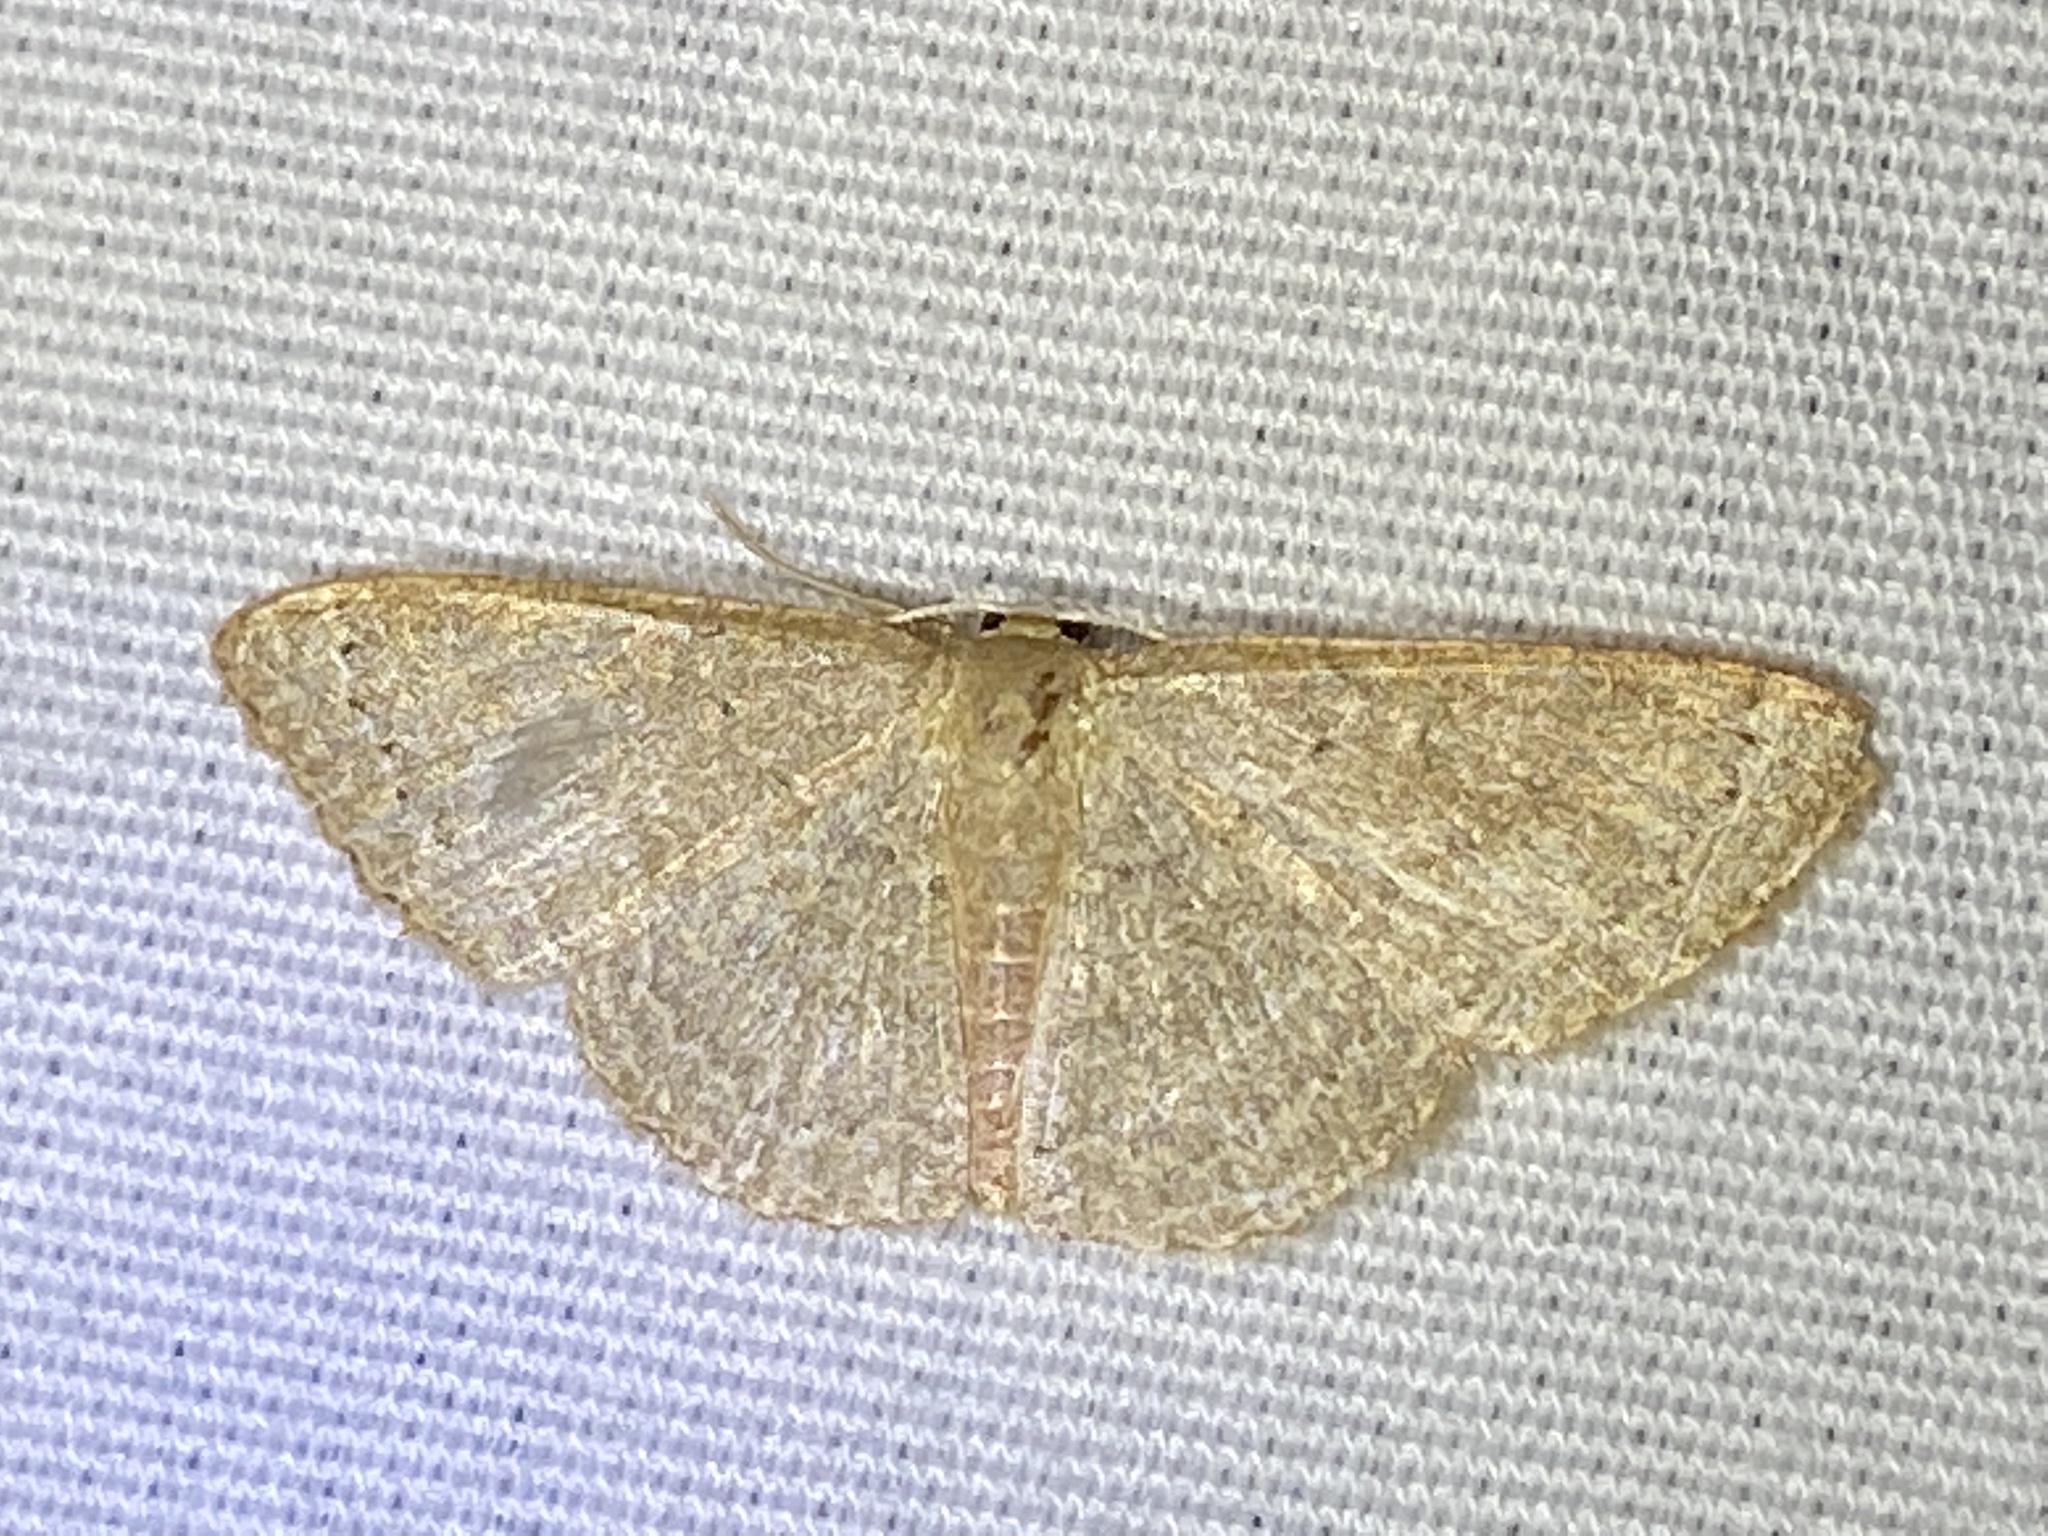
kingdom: Animalia
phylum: Arthropoda
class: Insecta
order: Lepidoptera
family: Geometridae
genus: Pleuroprucha
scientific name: Pleuroprucha insulsaria
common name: Common tan wave
